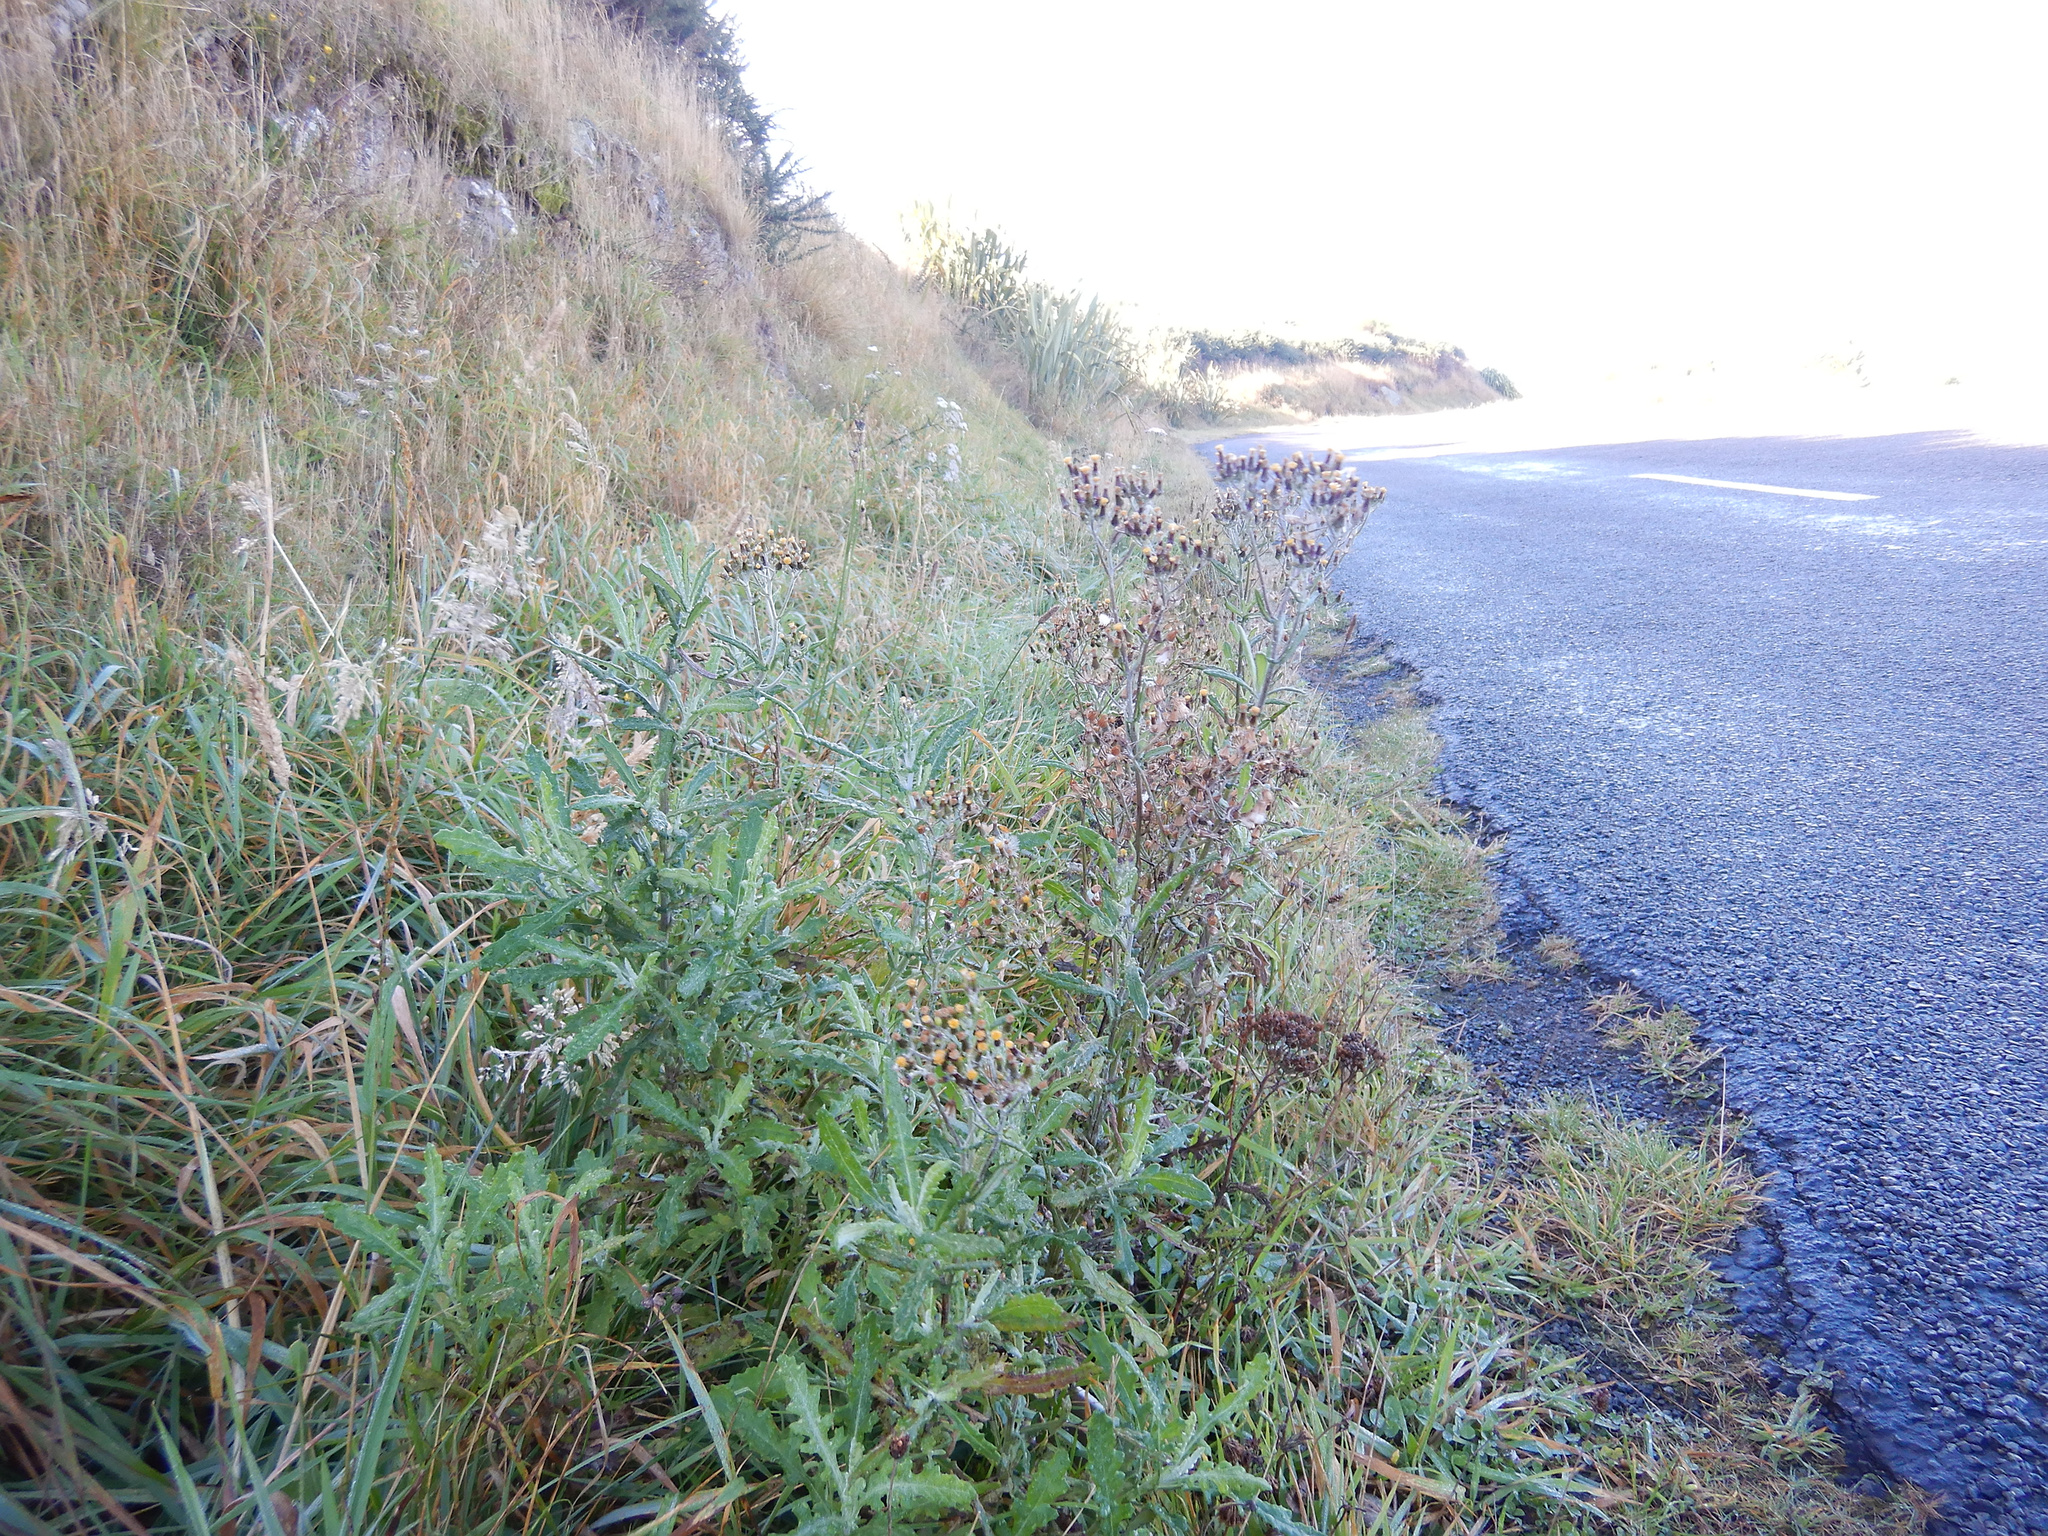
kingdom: Plantae
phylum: Tracheophyta
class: Magnoliopsida
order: Asterales
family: Asteraceae
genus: Senecio
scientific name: Senecio glomeratus
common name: Cutleaf burnweed
